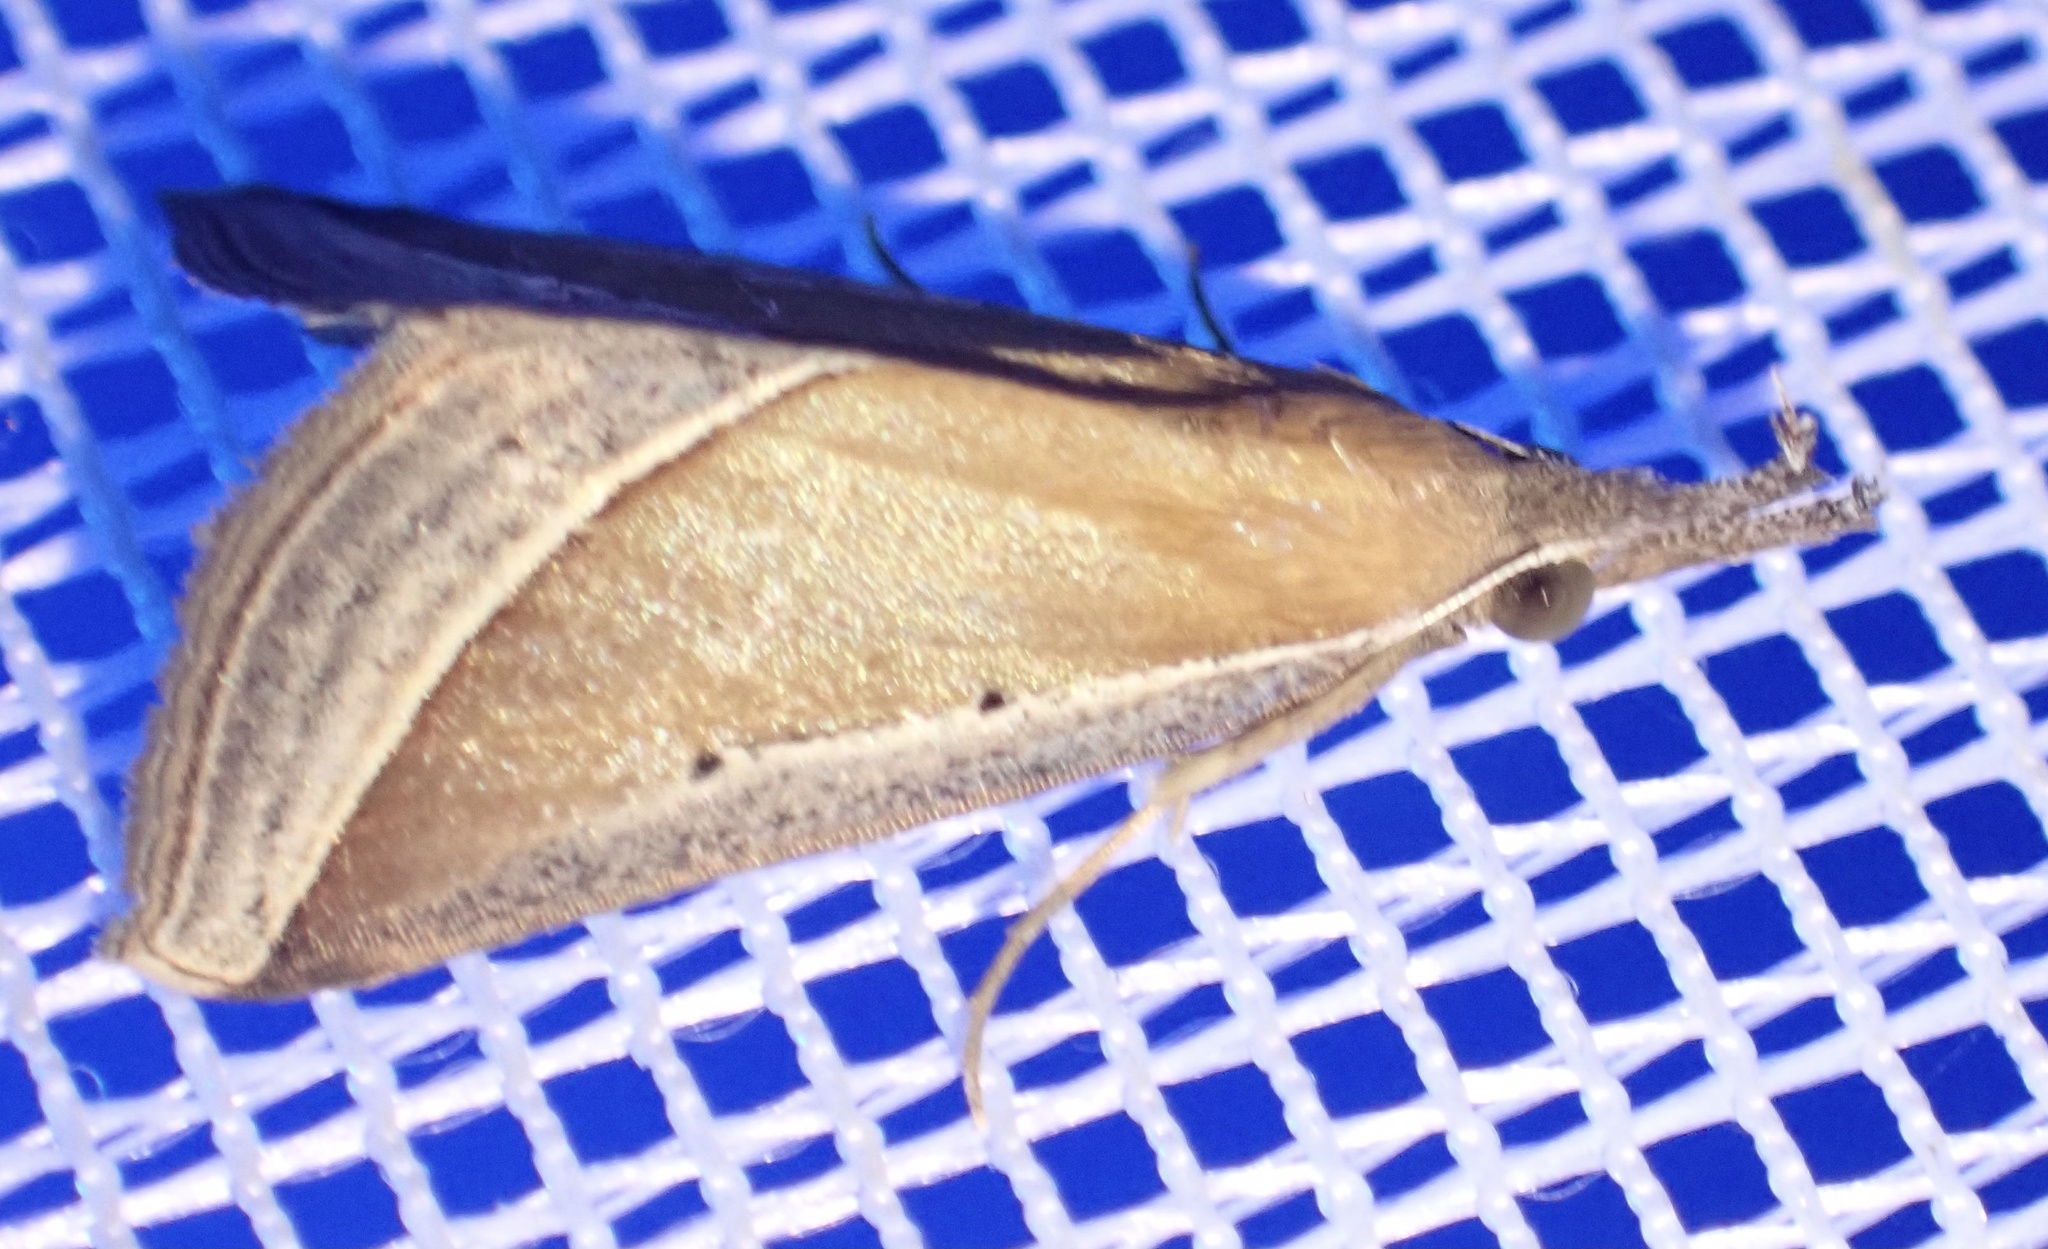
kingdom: Animalia
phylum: Arthropoda
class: Insecta
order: Lepidoptera
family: Erebidae
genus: Hypena
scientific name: Hypena conscitalis
